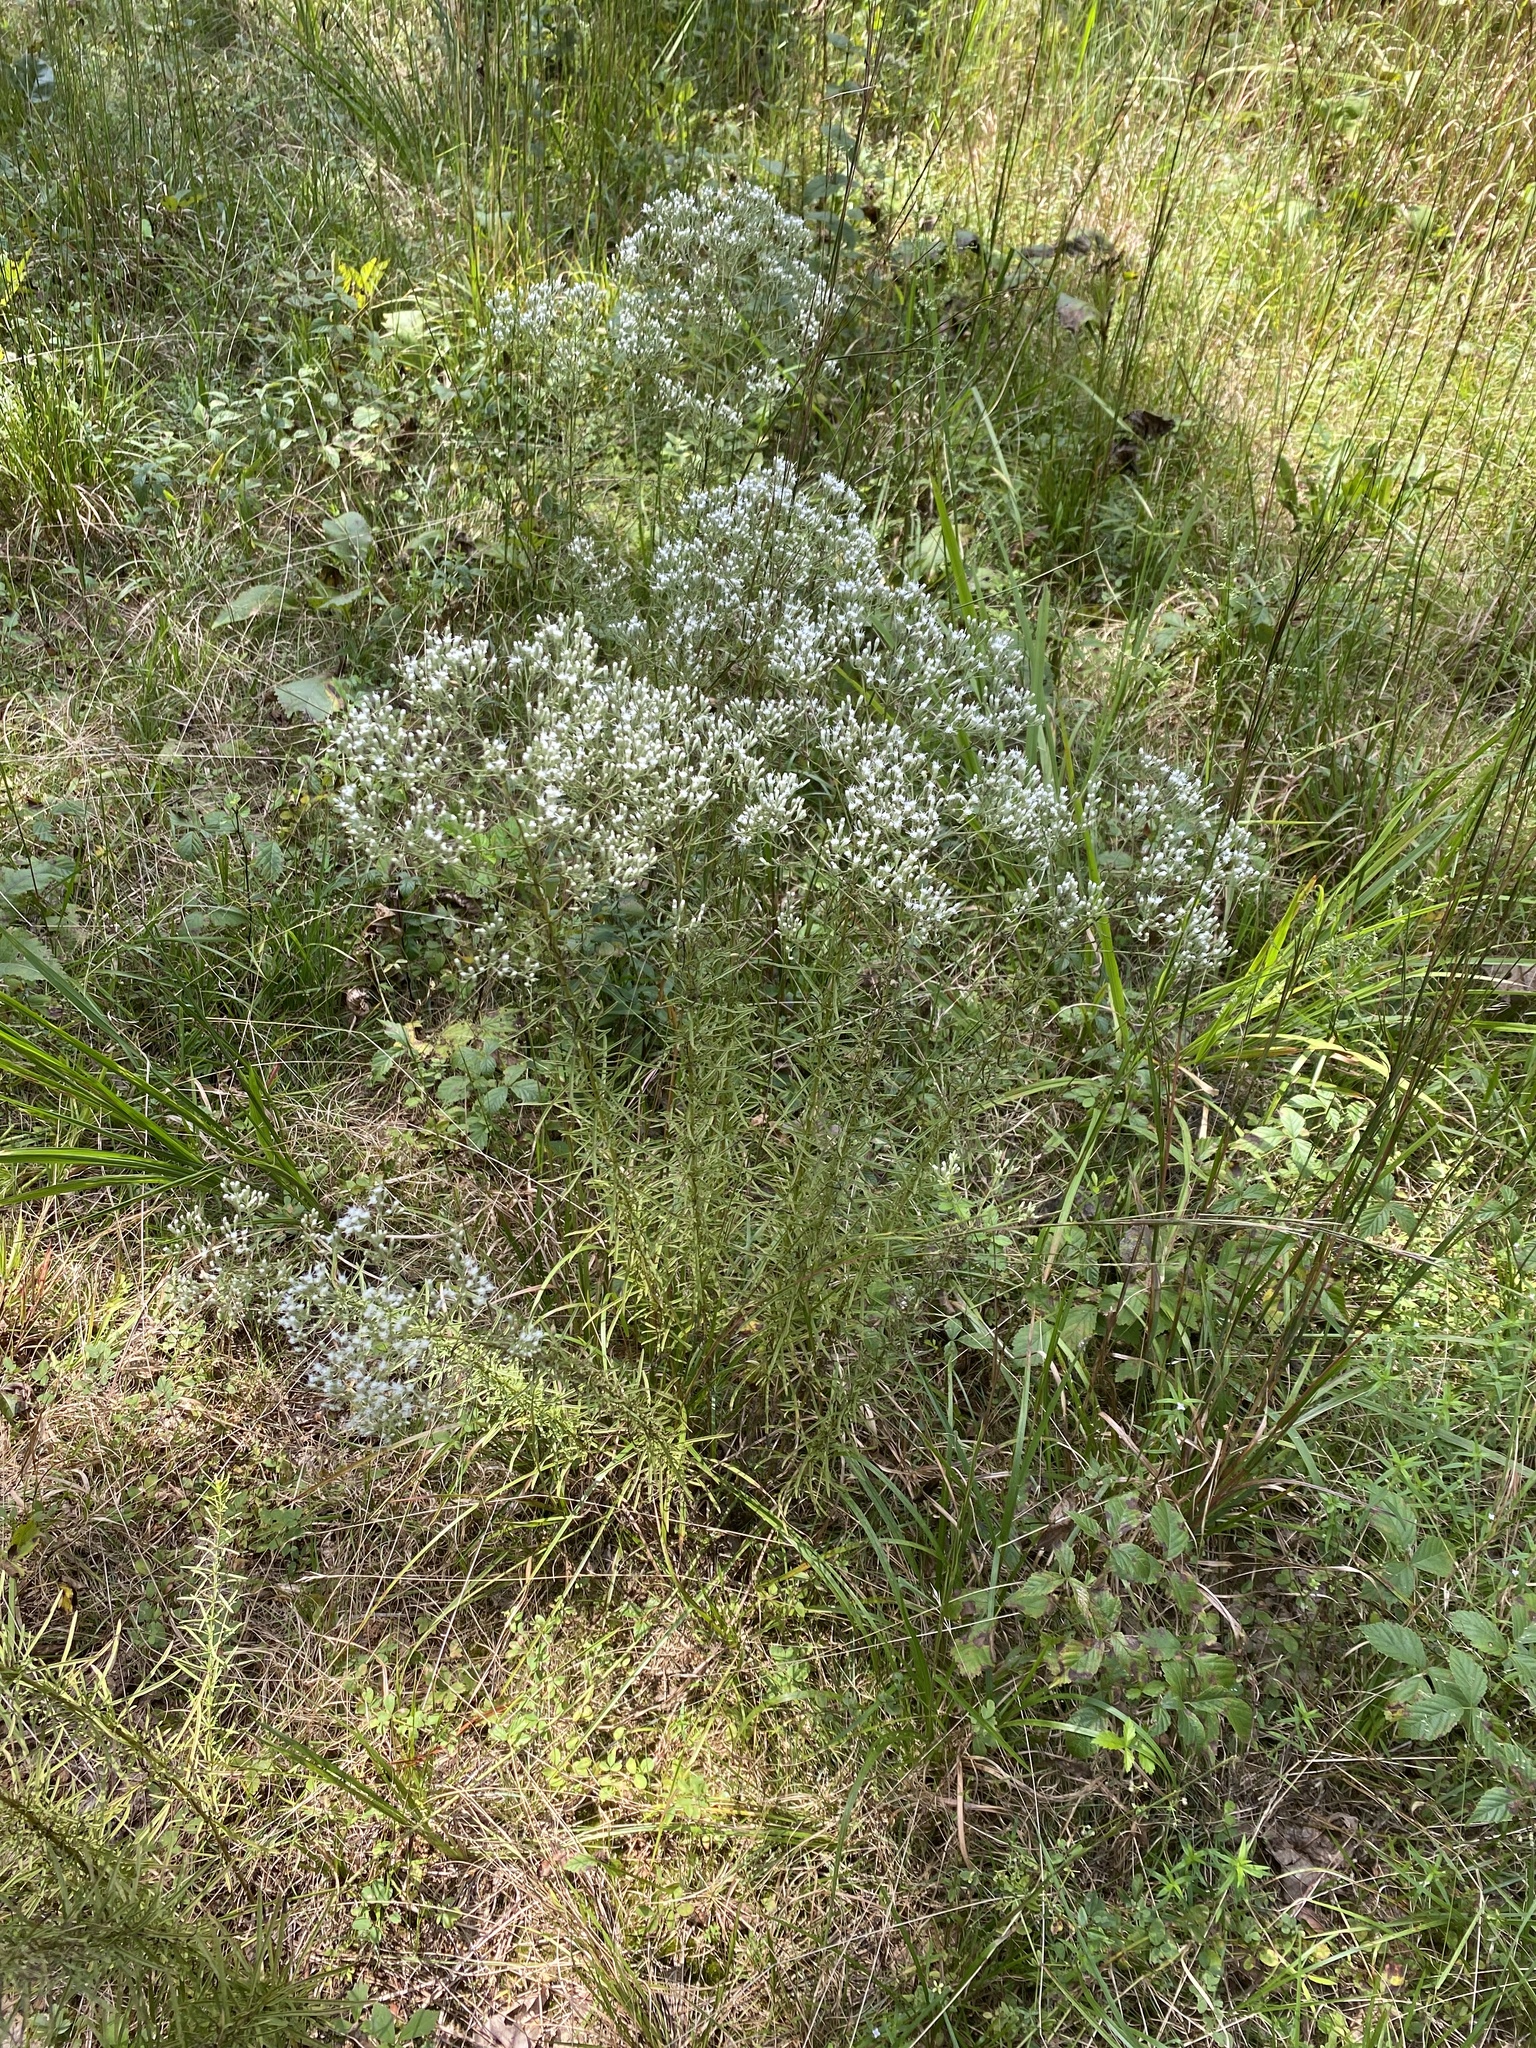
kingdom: Plantae
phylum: Tracheophyta
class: Magnoliopsida
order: Asterales
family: Asteraceae
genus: Eupatorium
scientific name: Eupatorium hyssopifolium
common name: Hyssop-leaf thoroughwort
